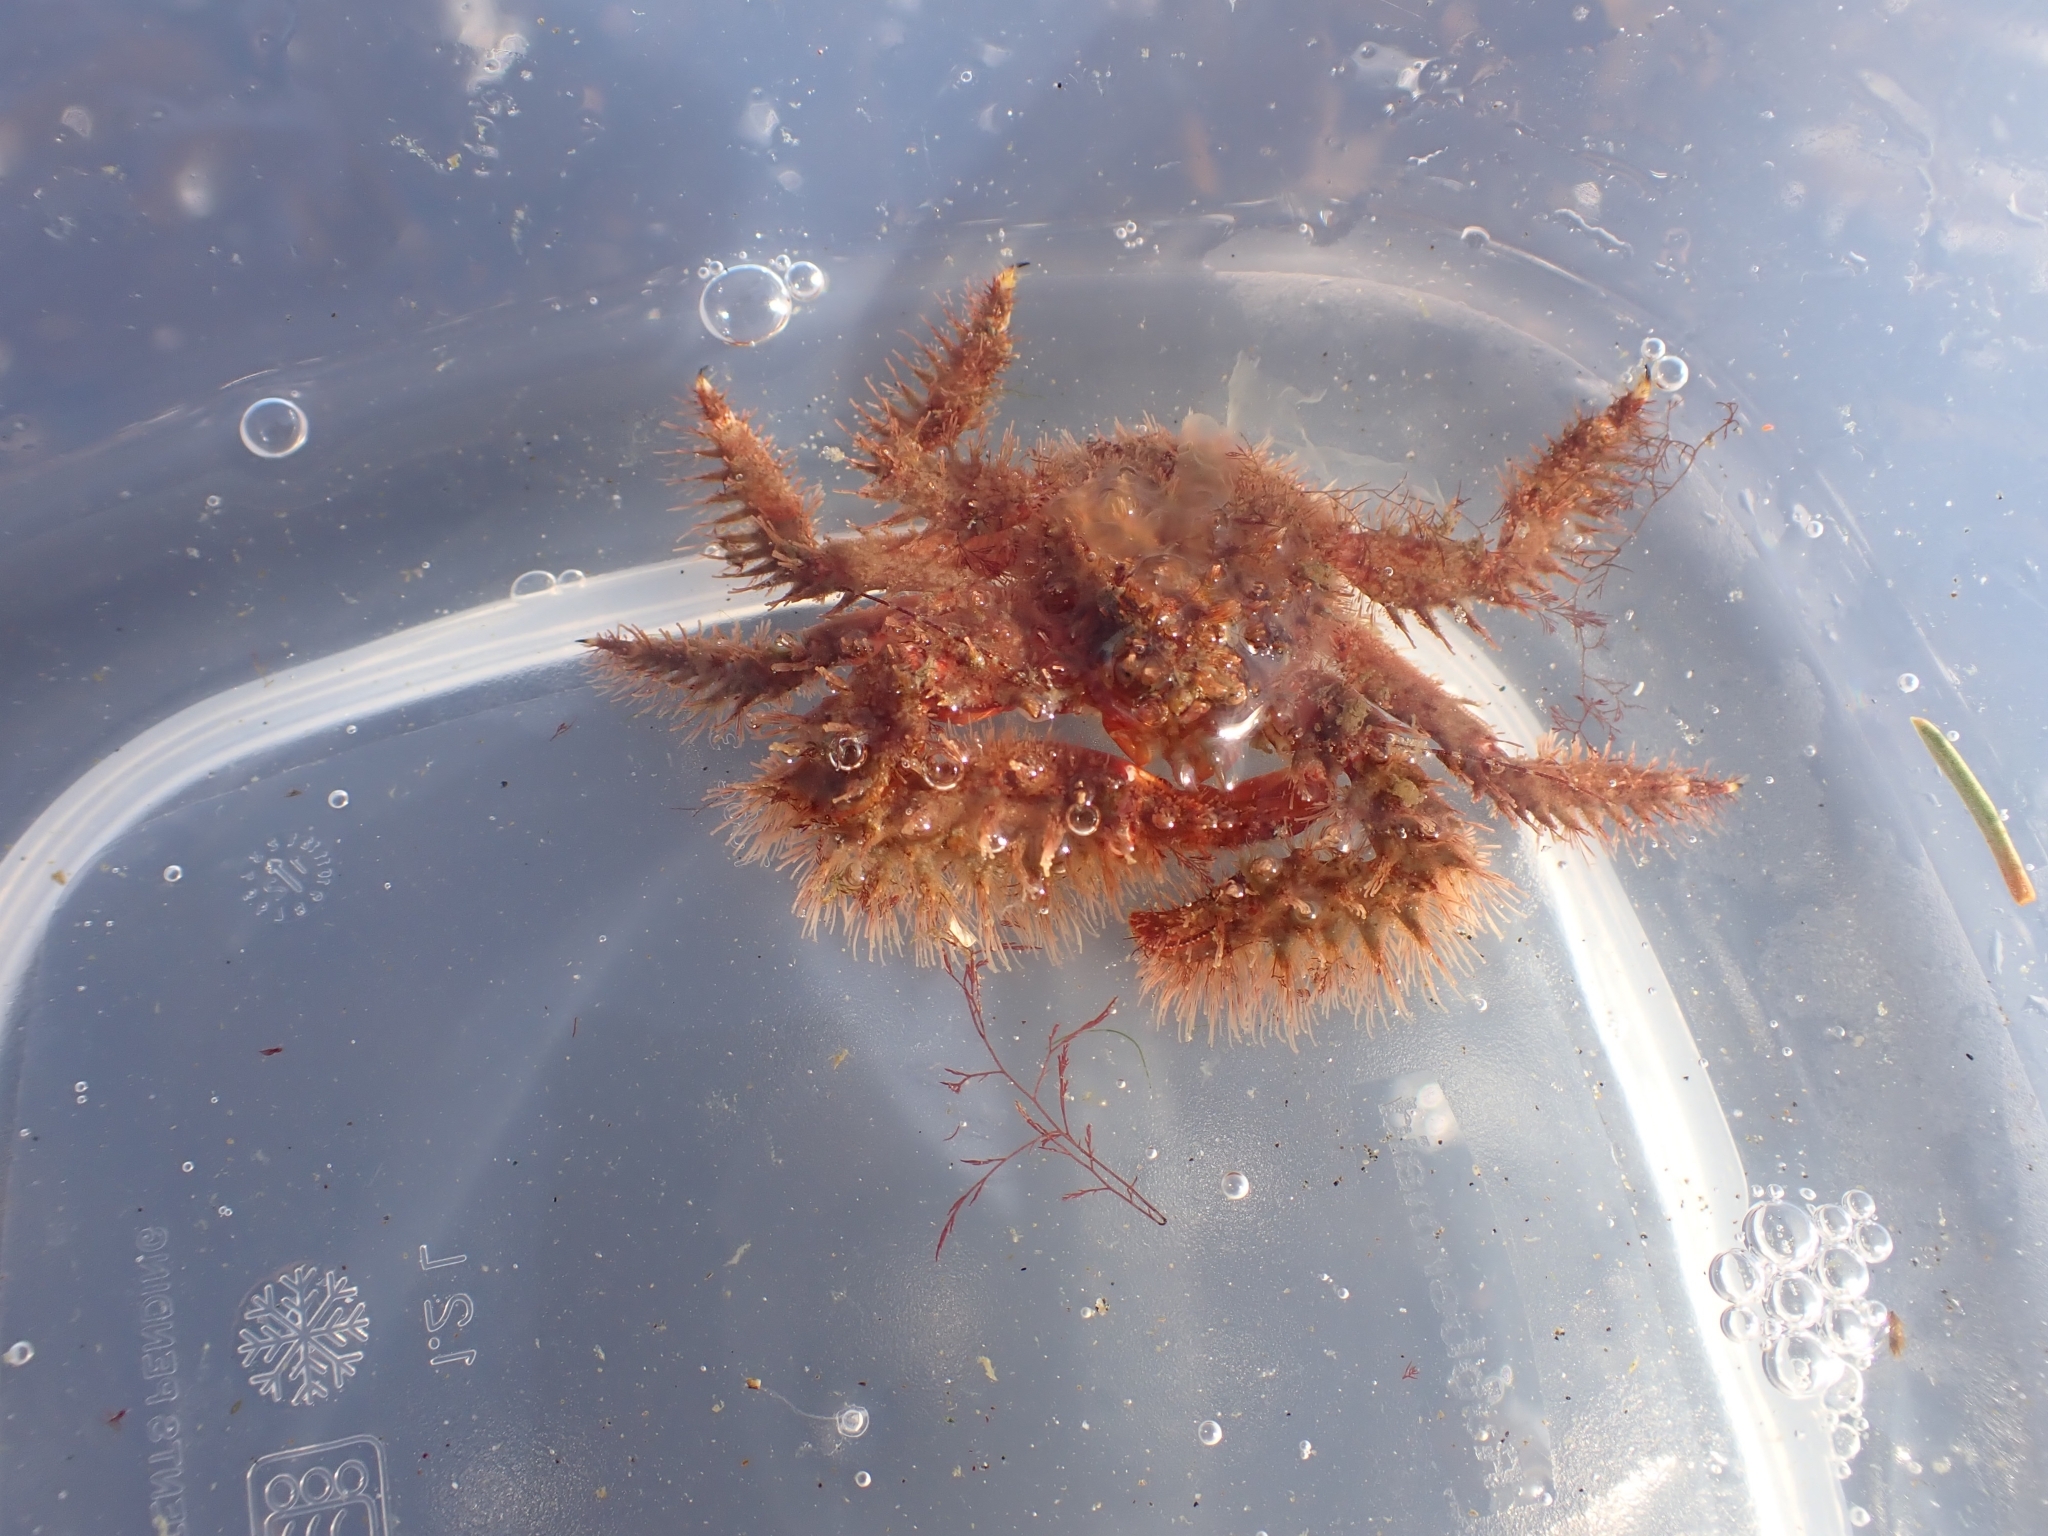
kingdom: Animalia
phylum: Arthropoda
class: Malacostraca
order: Decapoda
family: Hapalogastridae
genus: Hapalogaster
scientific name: Hapalogaster mertensii
